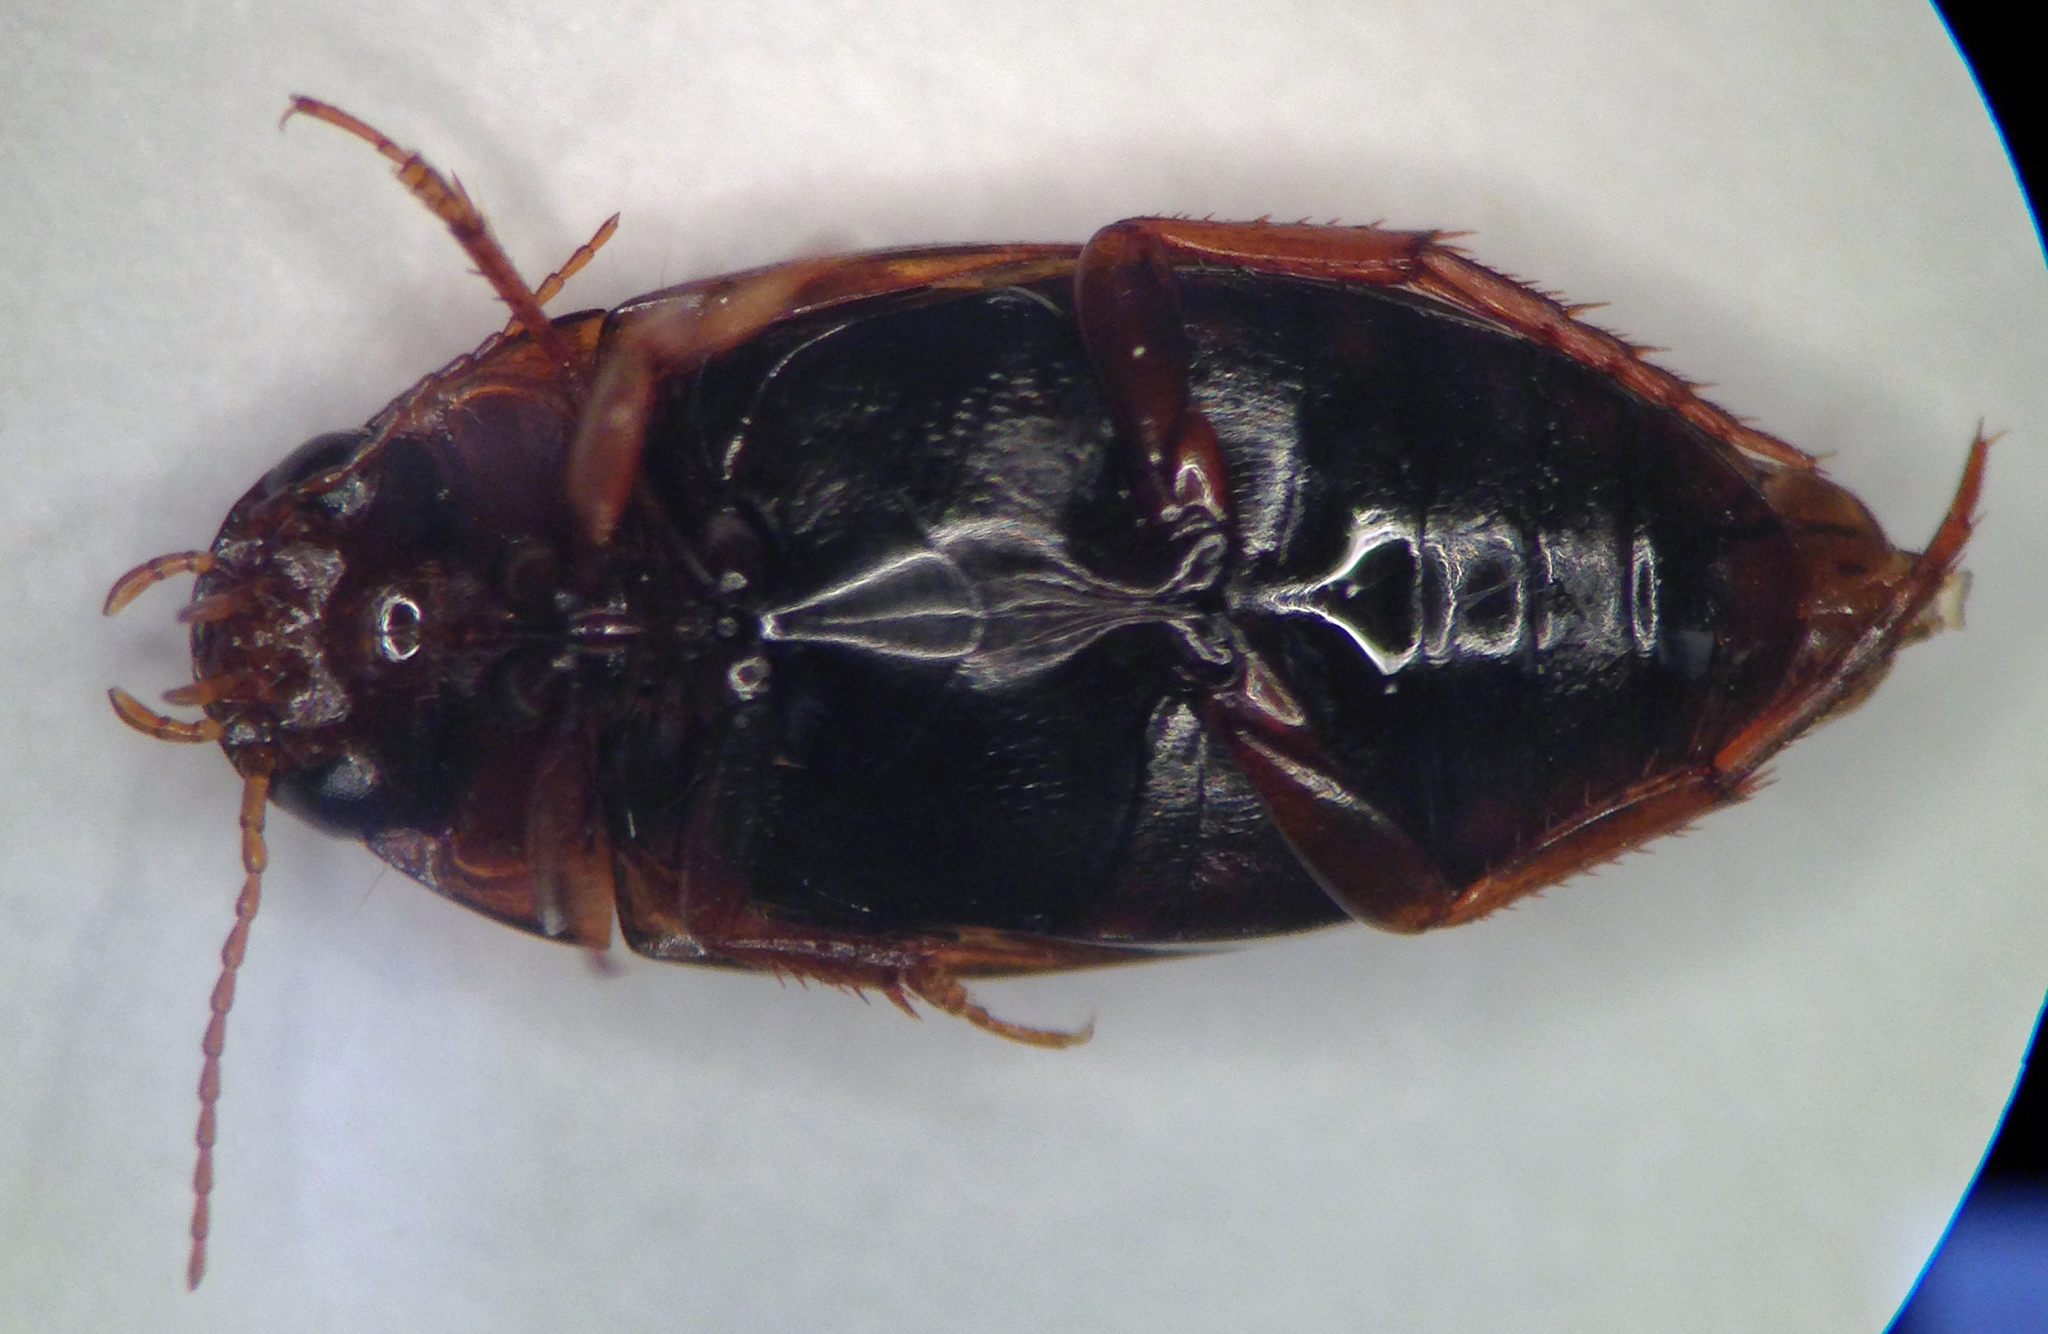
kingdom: Animalia
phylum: Arthropoda
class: Insecta
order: Coleoptera
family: Dytiscidae
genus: Copelatus
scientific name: Copelatus glyphicus
